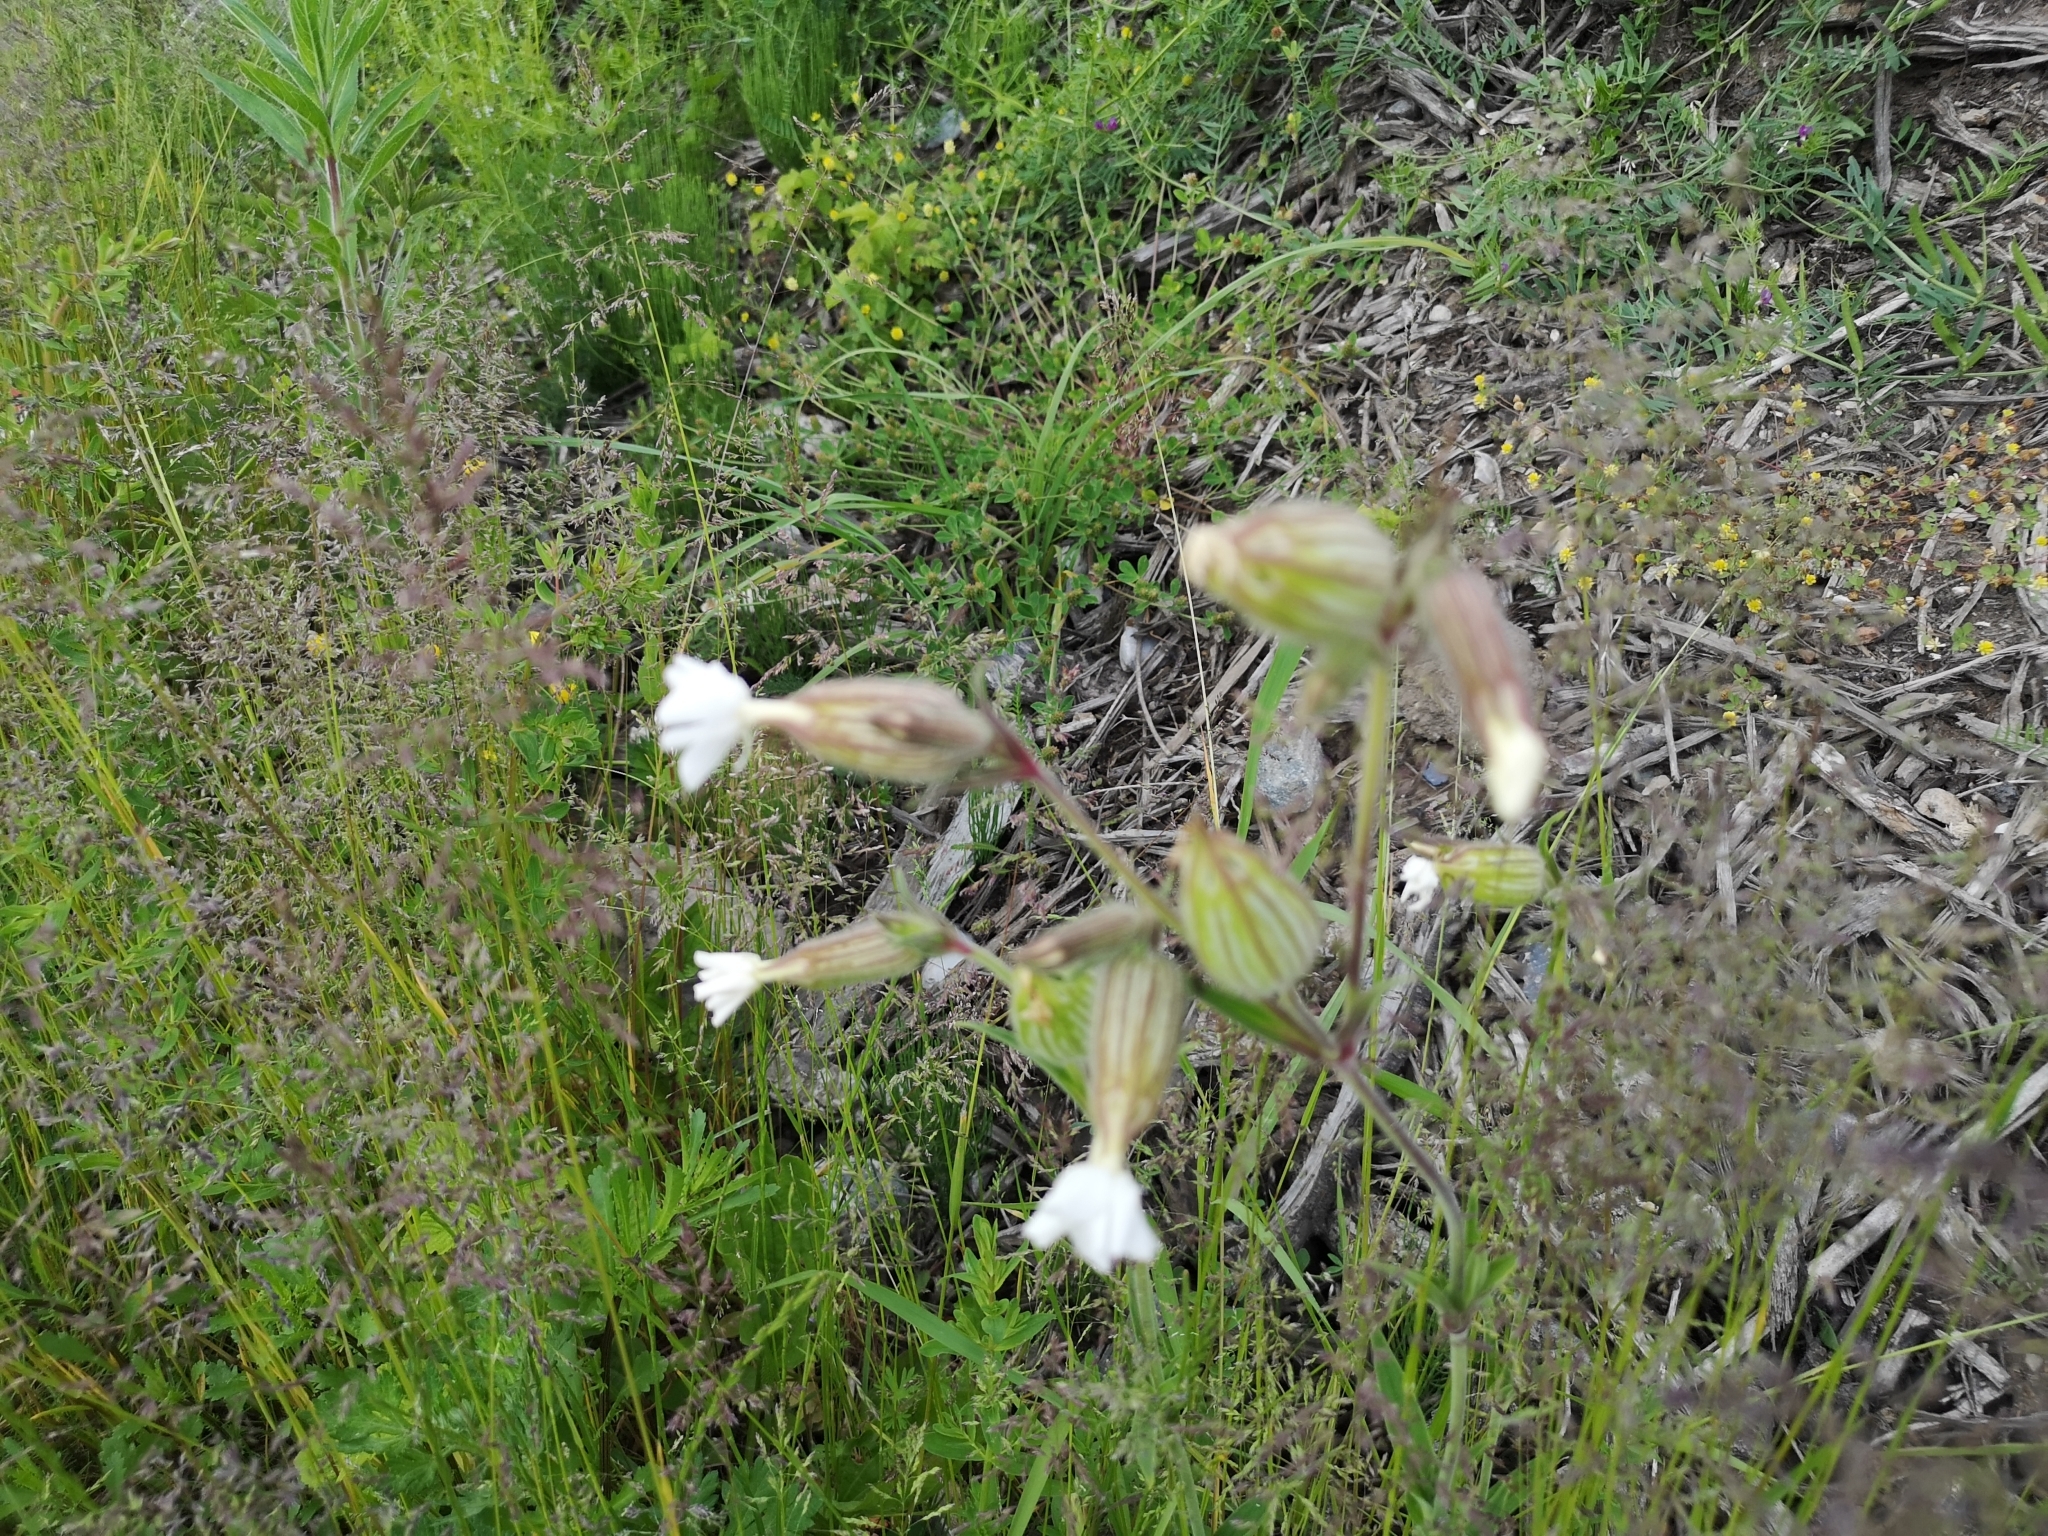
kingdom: Plantae
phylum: Tracheophyta
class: Magnoliopsida
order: Caryophyllales
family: Caryophyllaceae
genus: Silene
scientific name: Silene latifolia
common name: White campion
